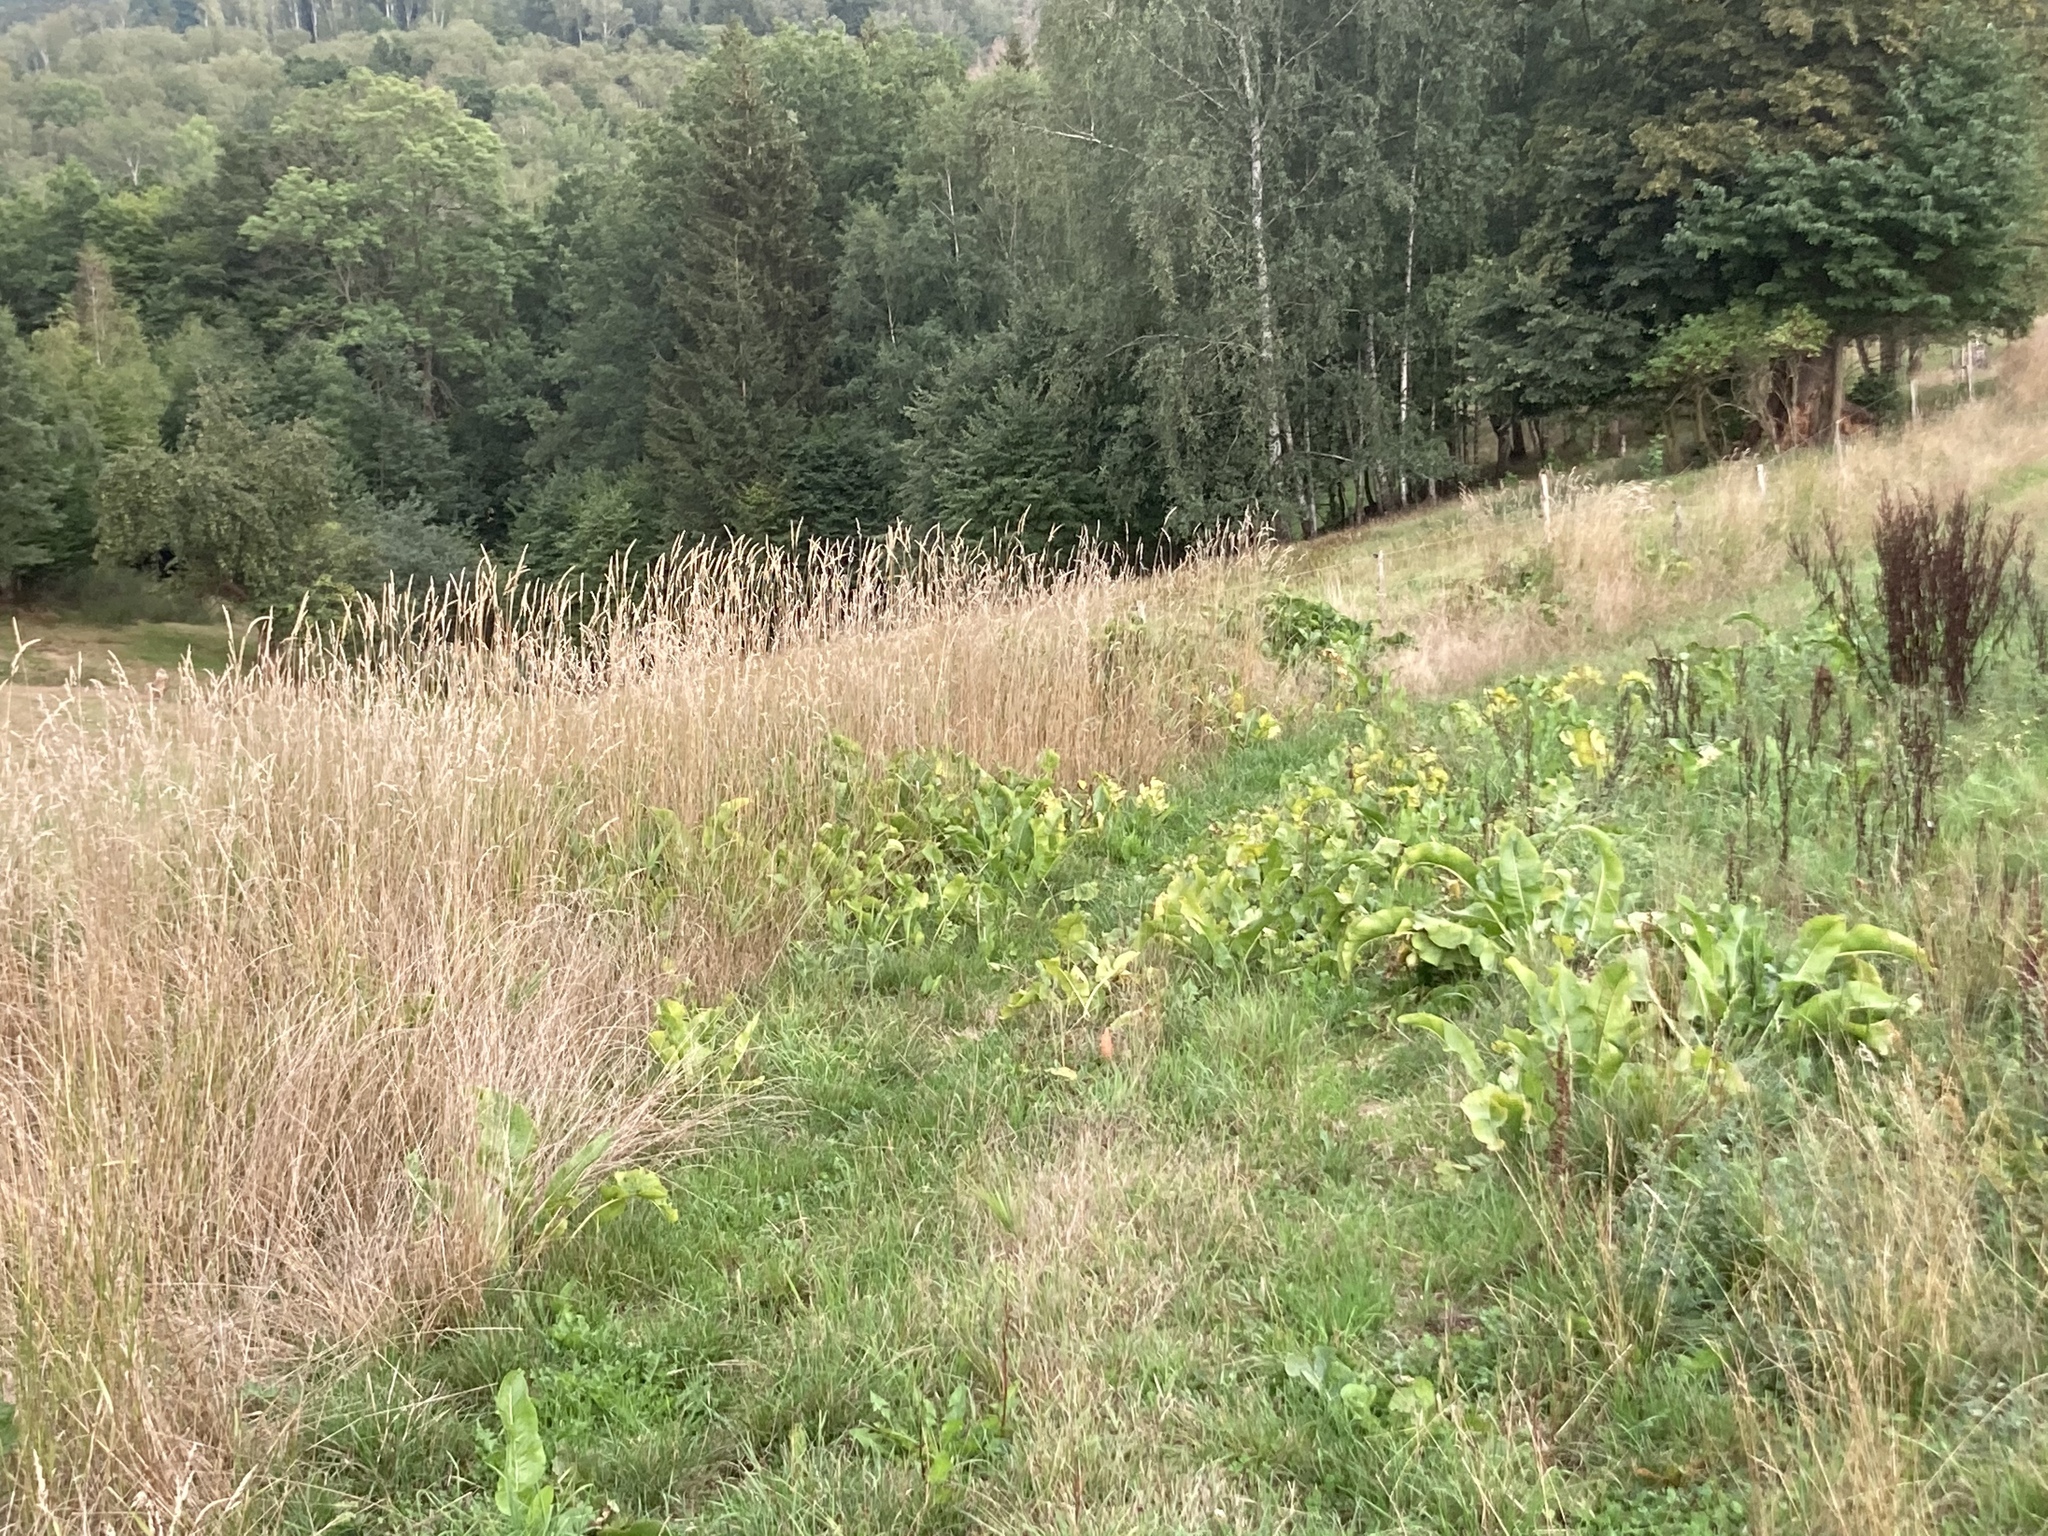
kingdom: Plantae
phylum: Tracheophyta
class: Magnoliopsida
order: Brassicales
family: Brassicaceae
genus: Armoracia
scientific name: Armoracia rusticana
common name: Horseradish
